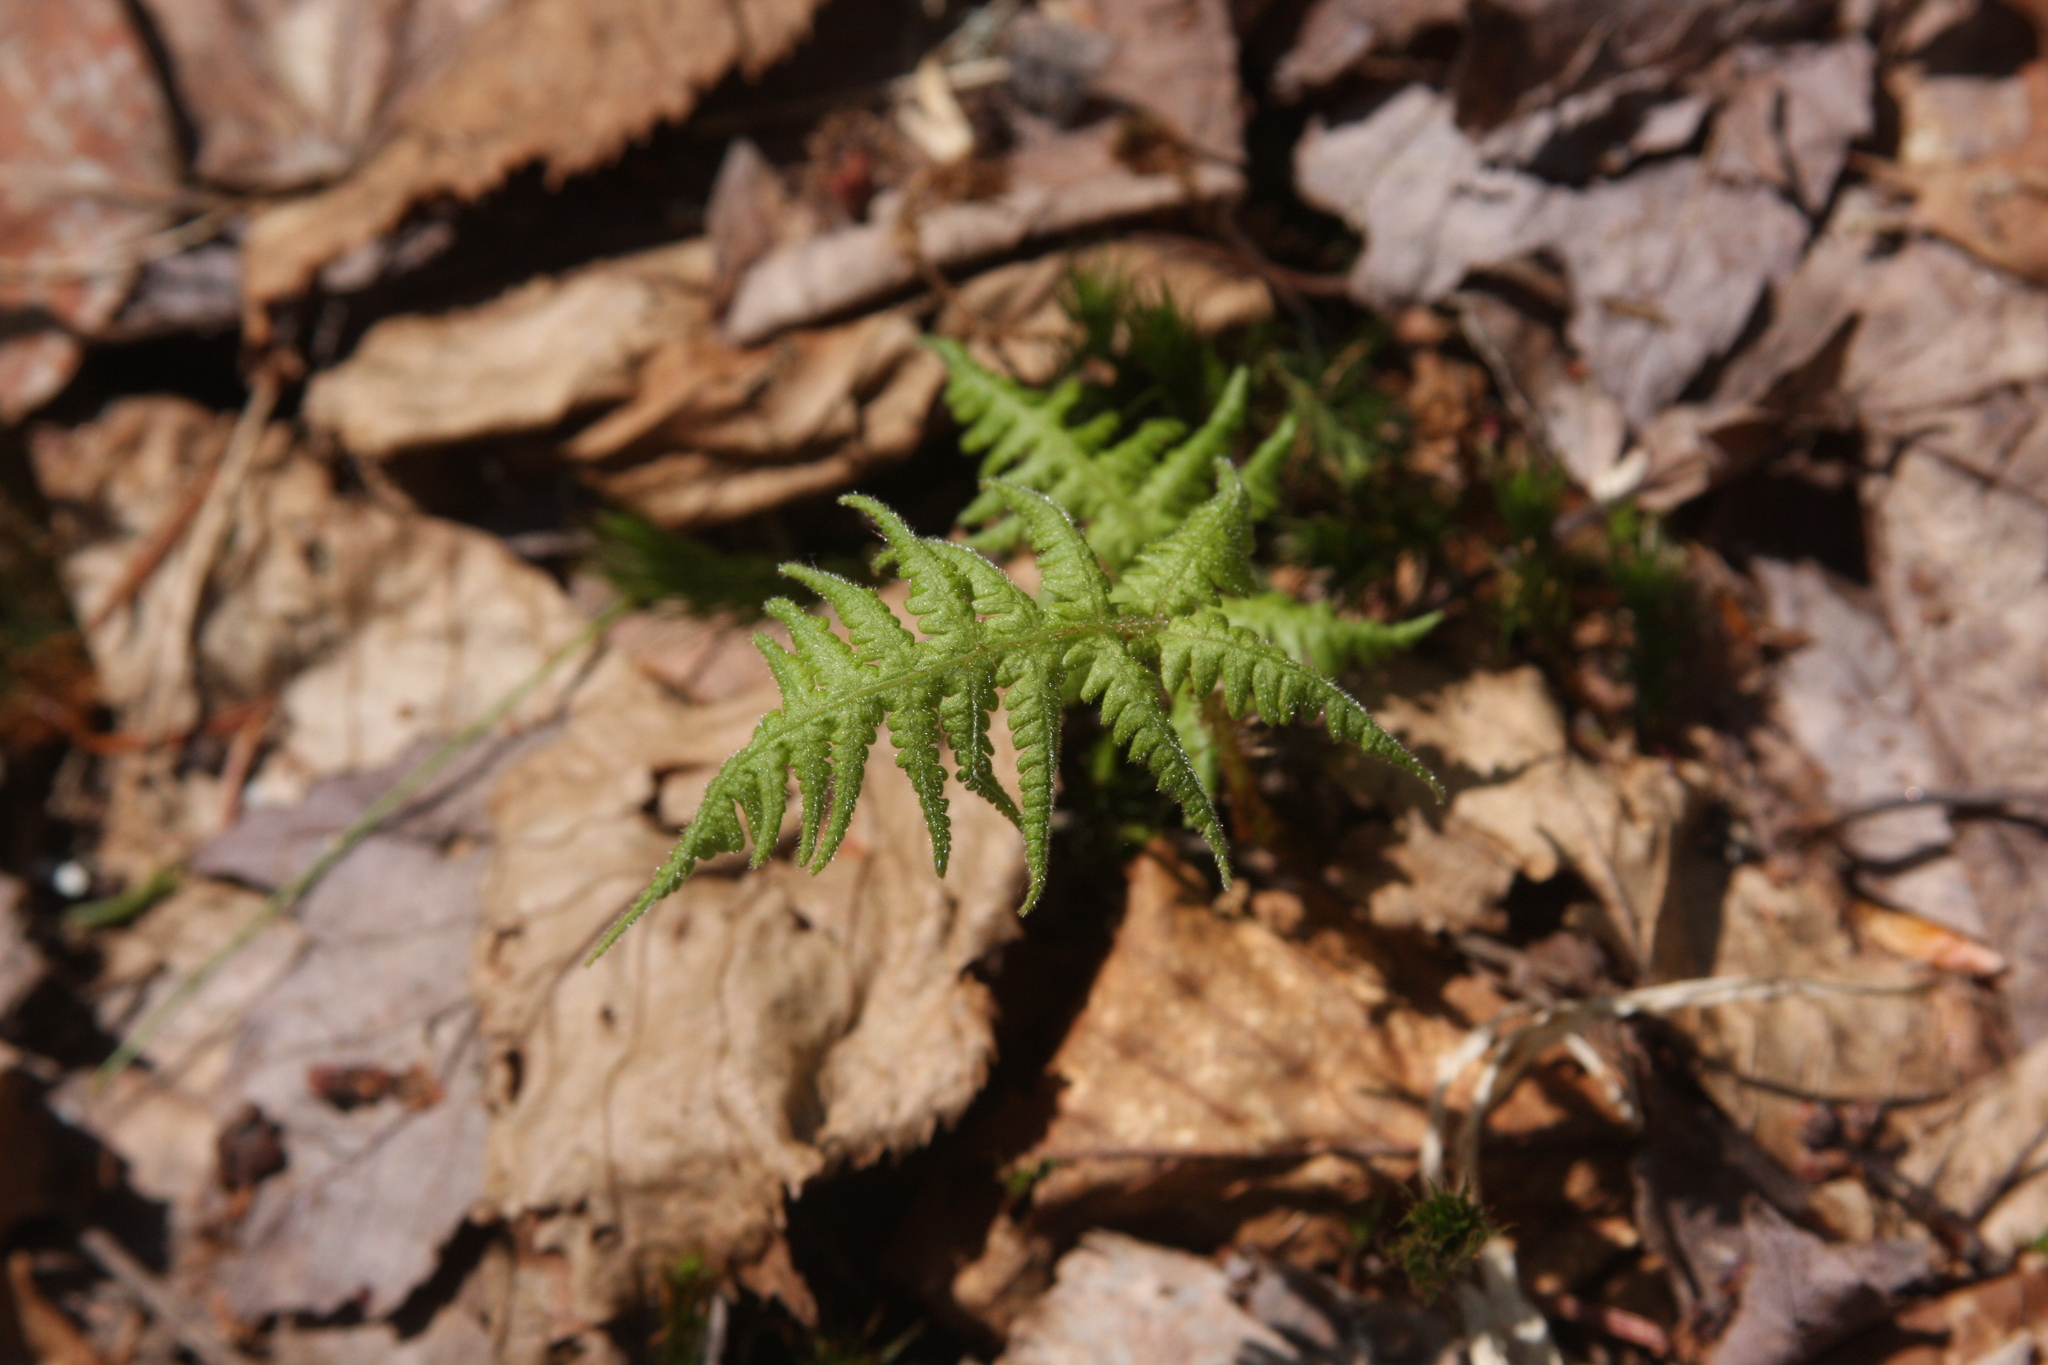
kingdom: Plantae
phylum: Tracheophyta
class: Polypodiopsida
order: Polypodiales
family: Thelypteridaceae
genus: Phegopteris
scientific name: Phegopteris connectilis
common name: Beech fern
